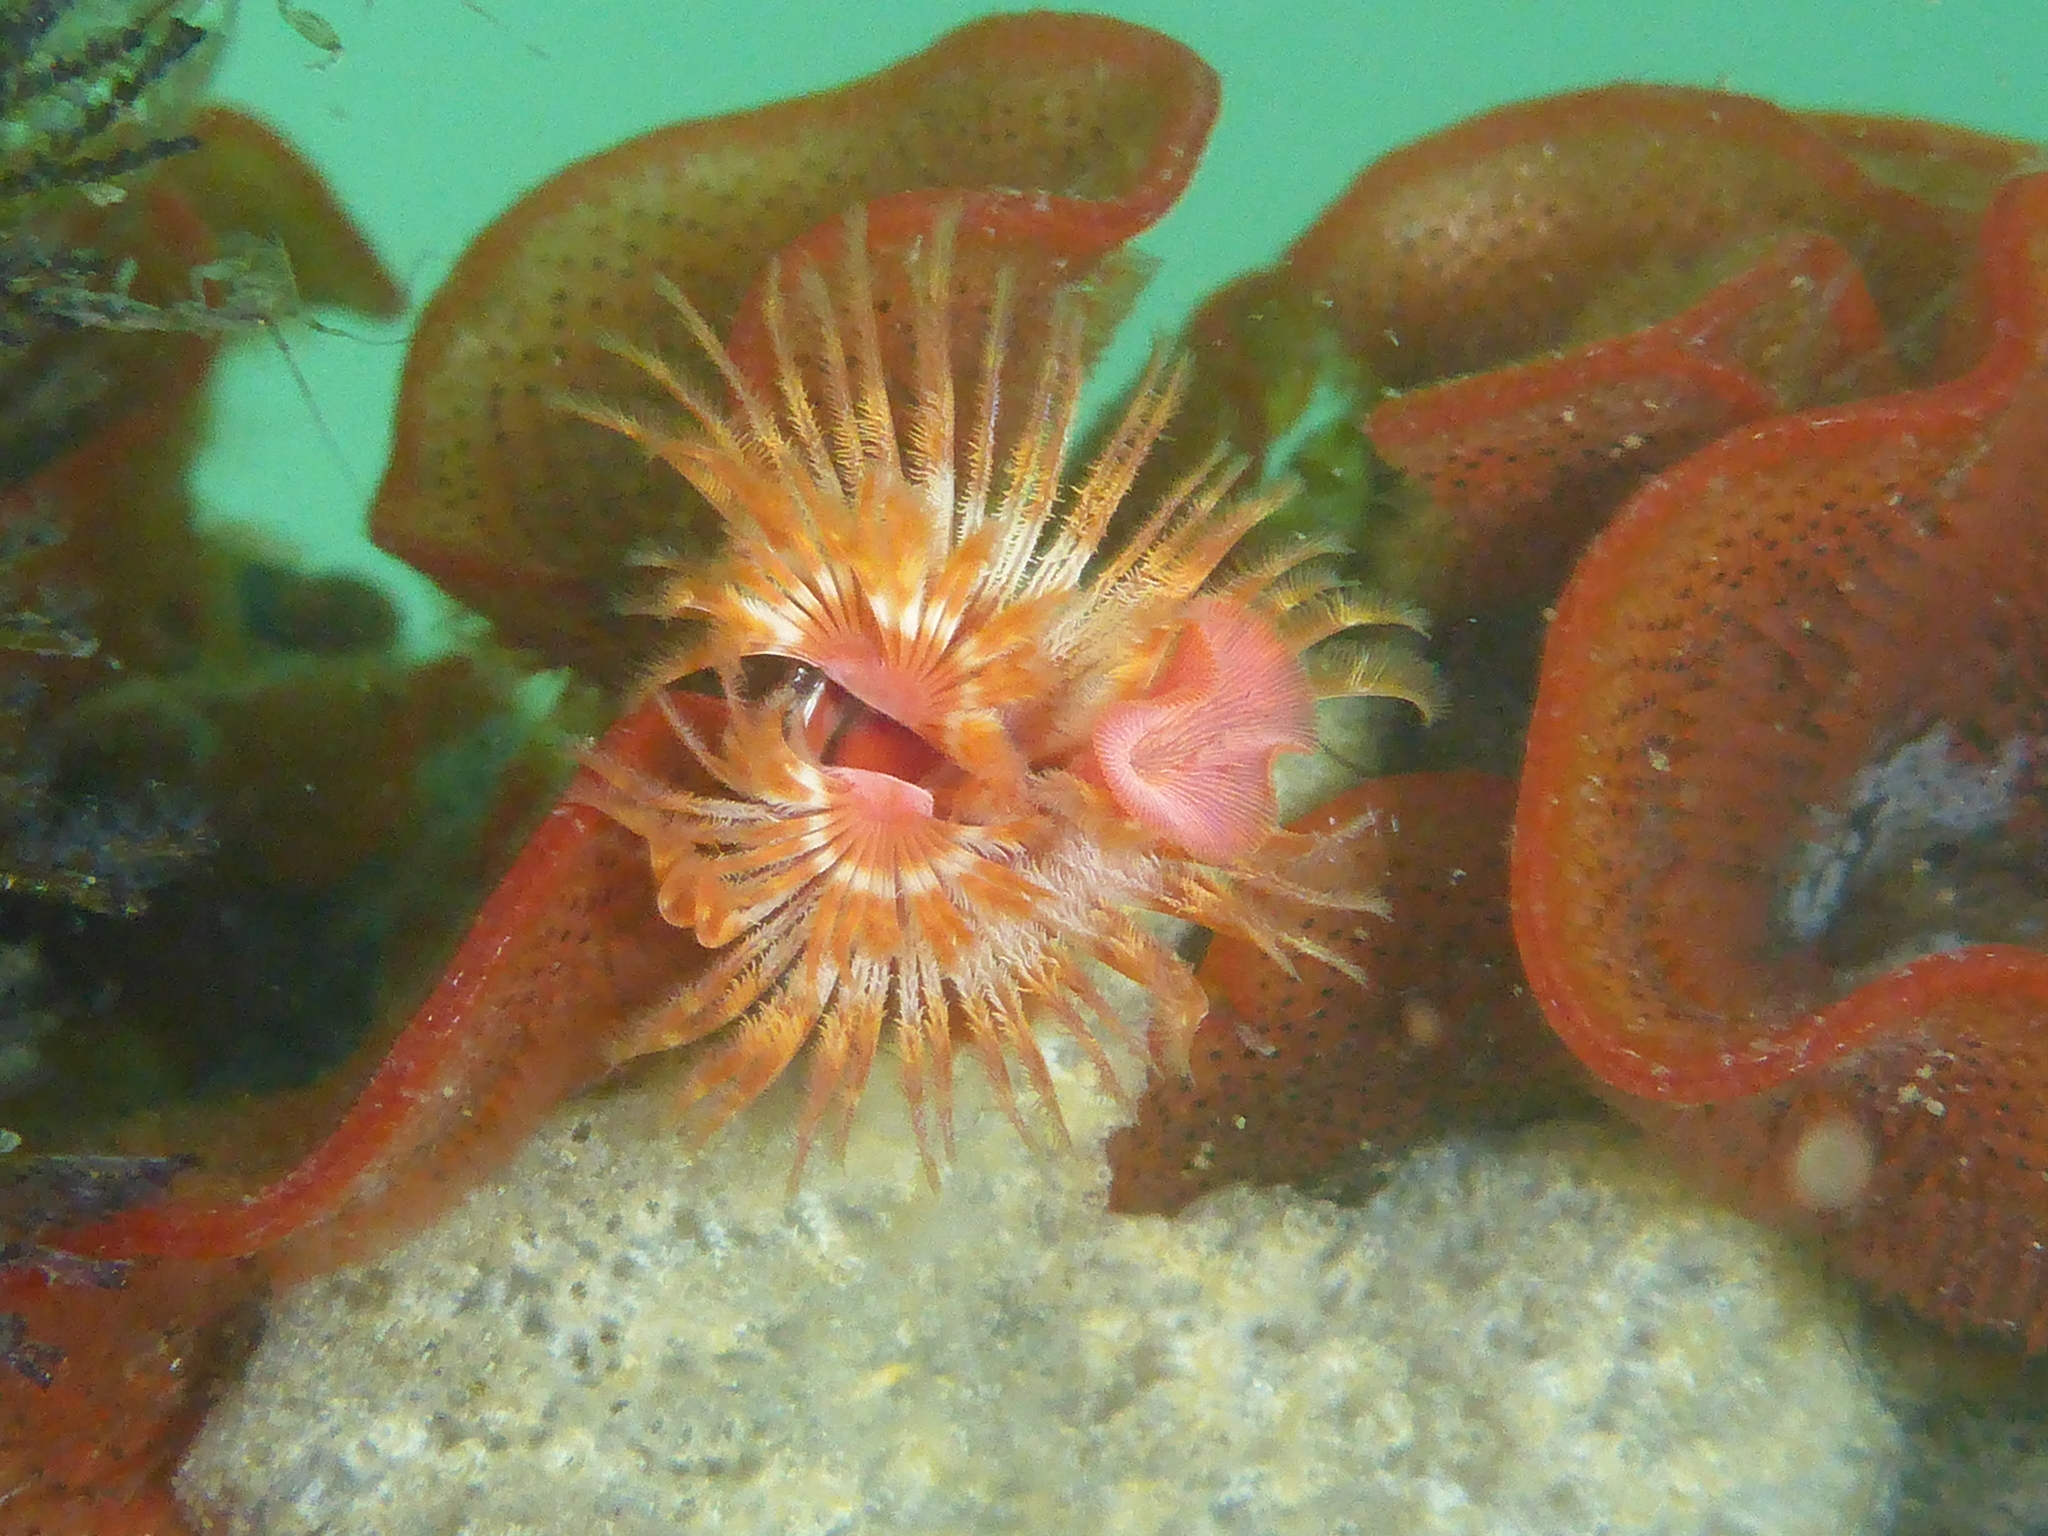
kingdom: Animalia
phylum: Annelida
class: Polychaeta
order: Sabellida
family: Serpulidae
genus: Serpula
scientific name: Serpula columbiana
